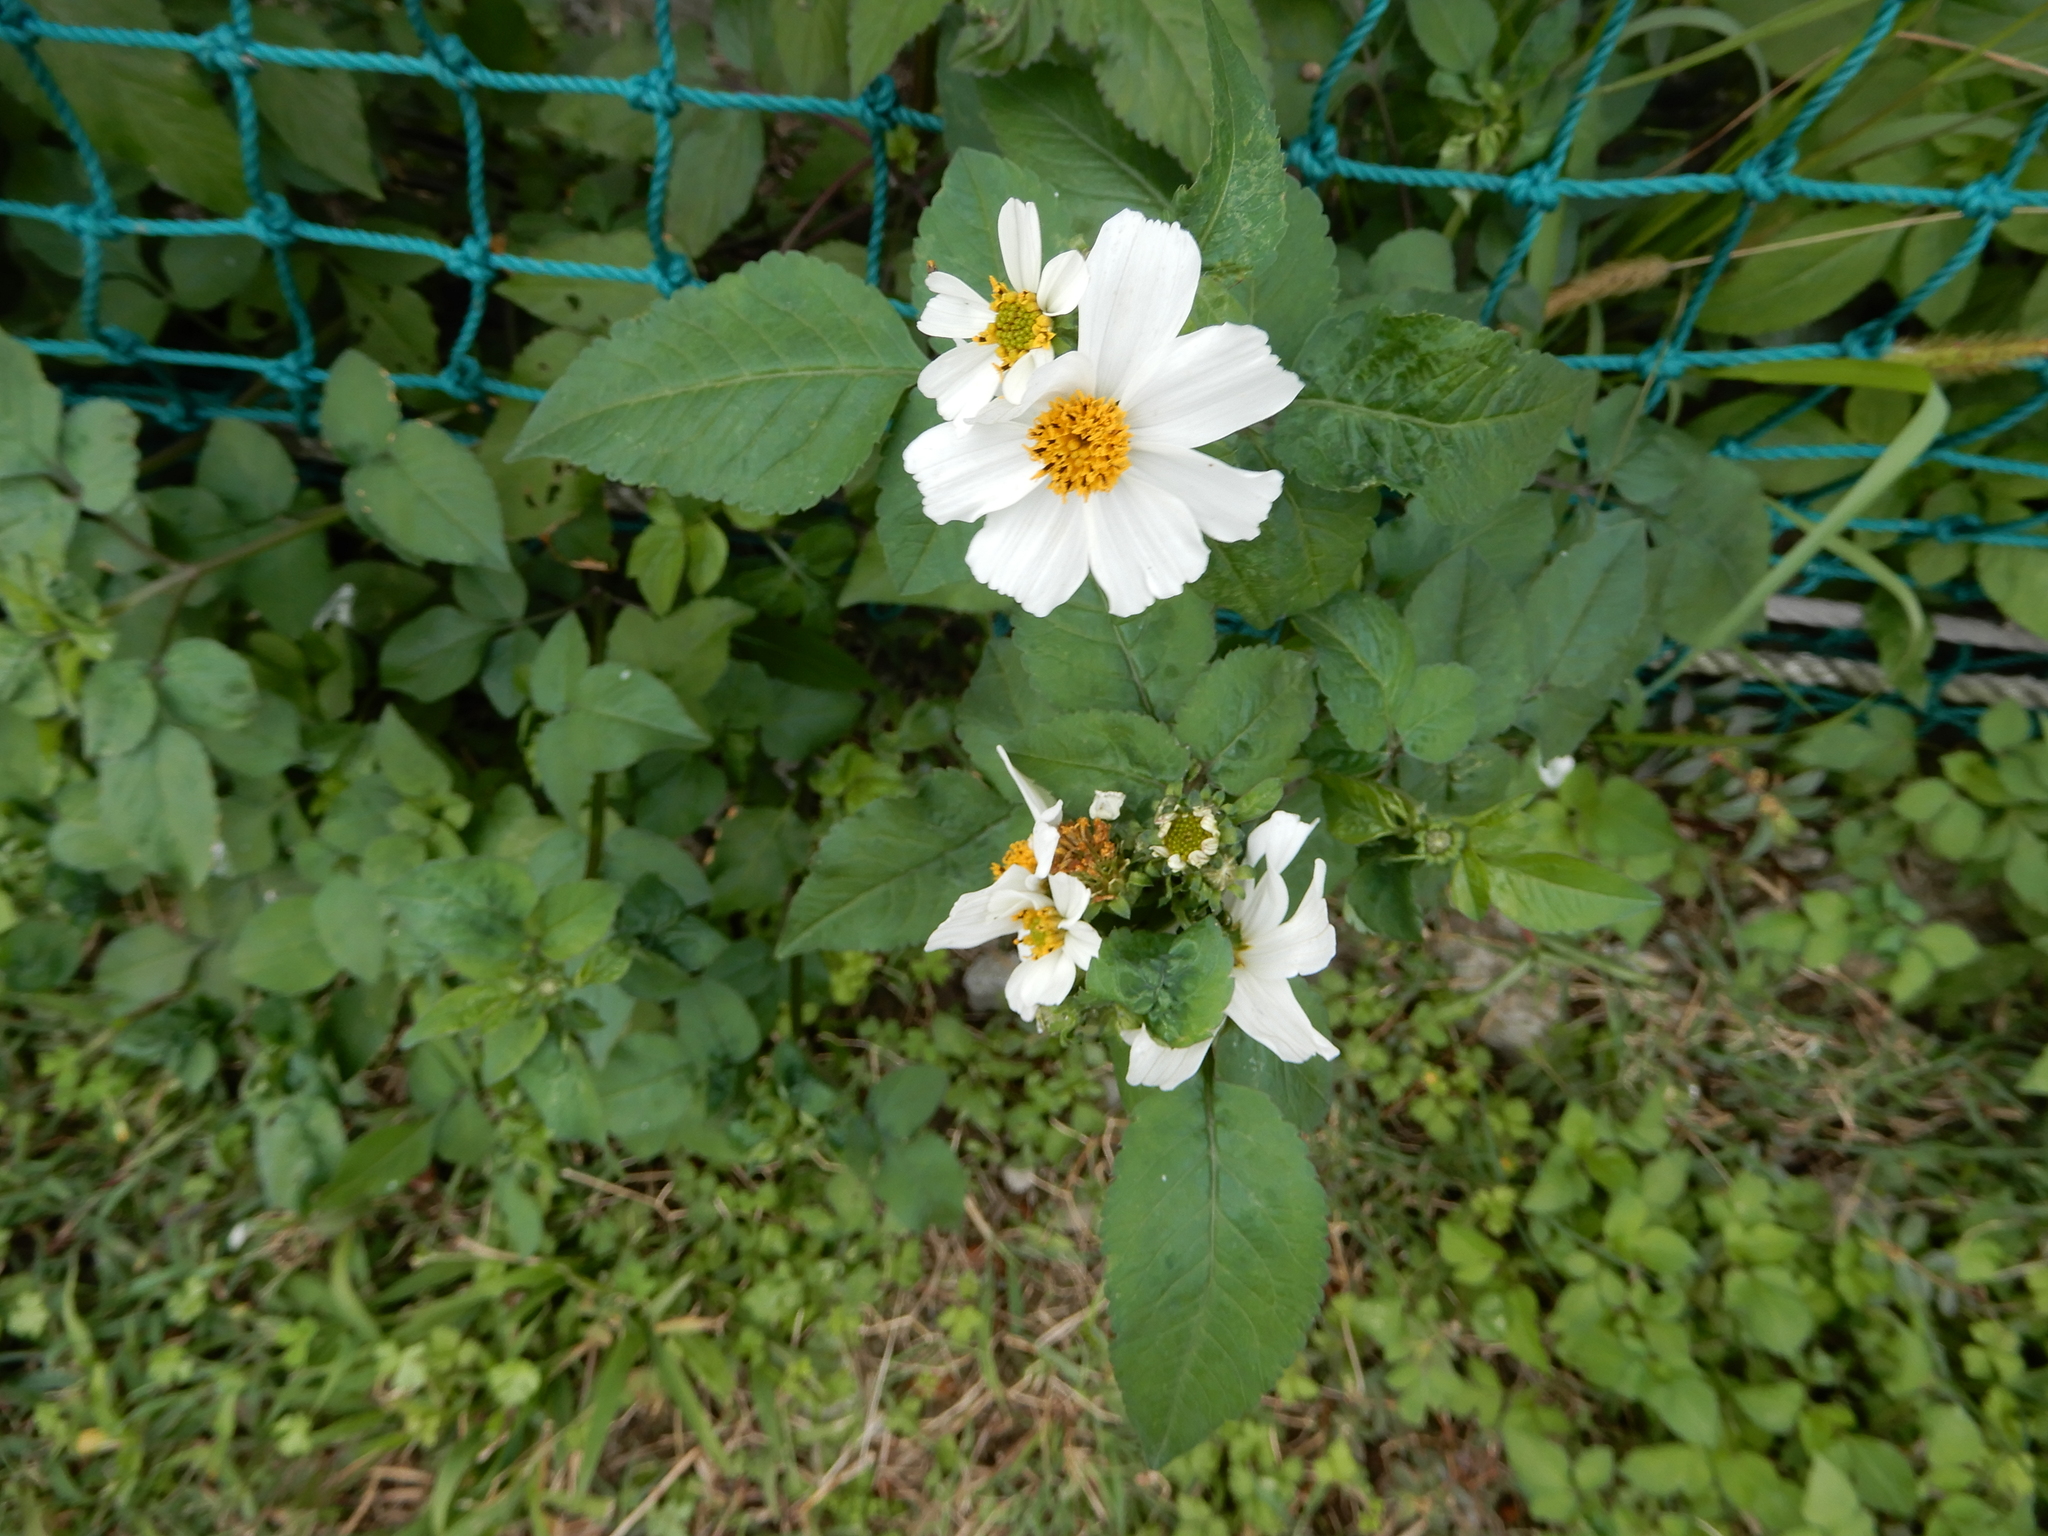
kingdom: Plantae
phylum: Tracheophyta
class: Magnoliopsida
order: Asterales
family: Asteraceae
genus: Bidens
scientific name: Bidens alba
